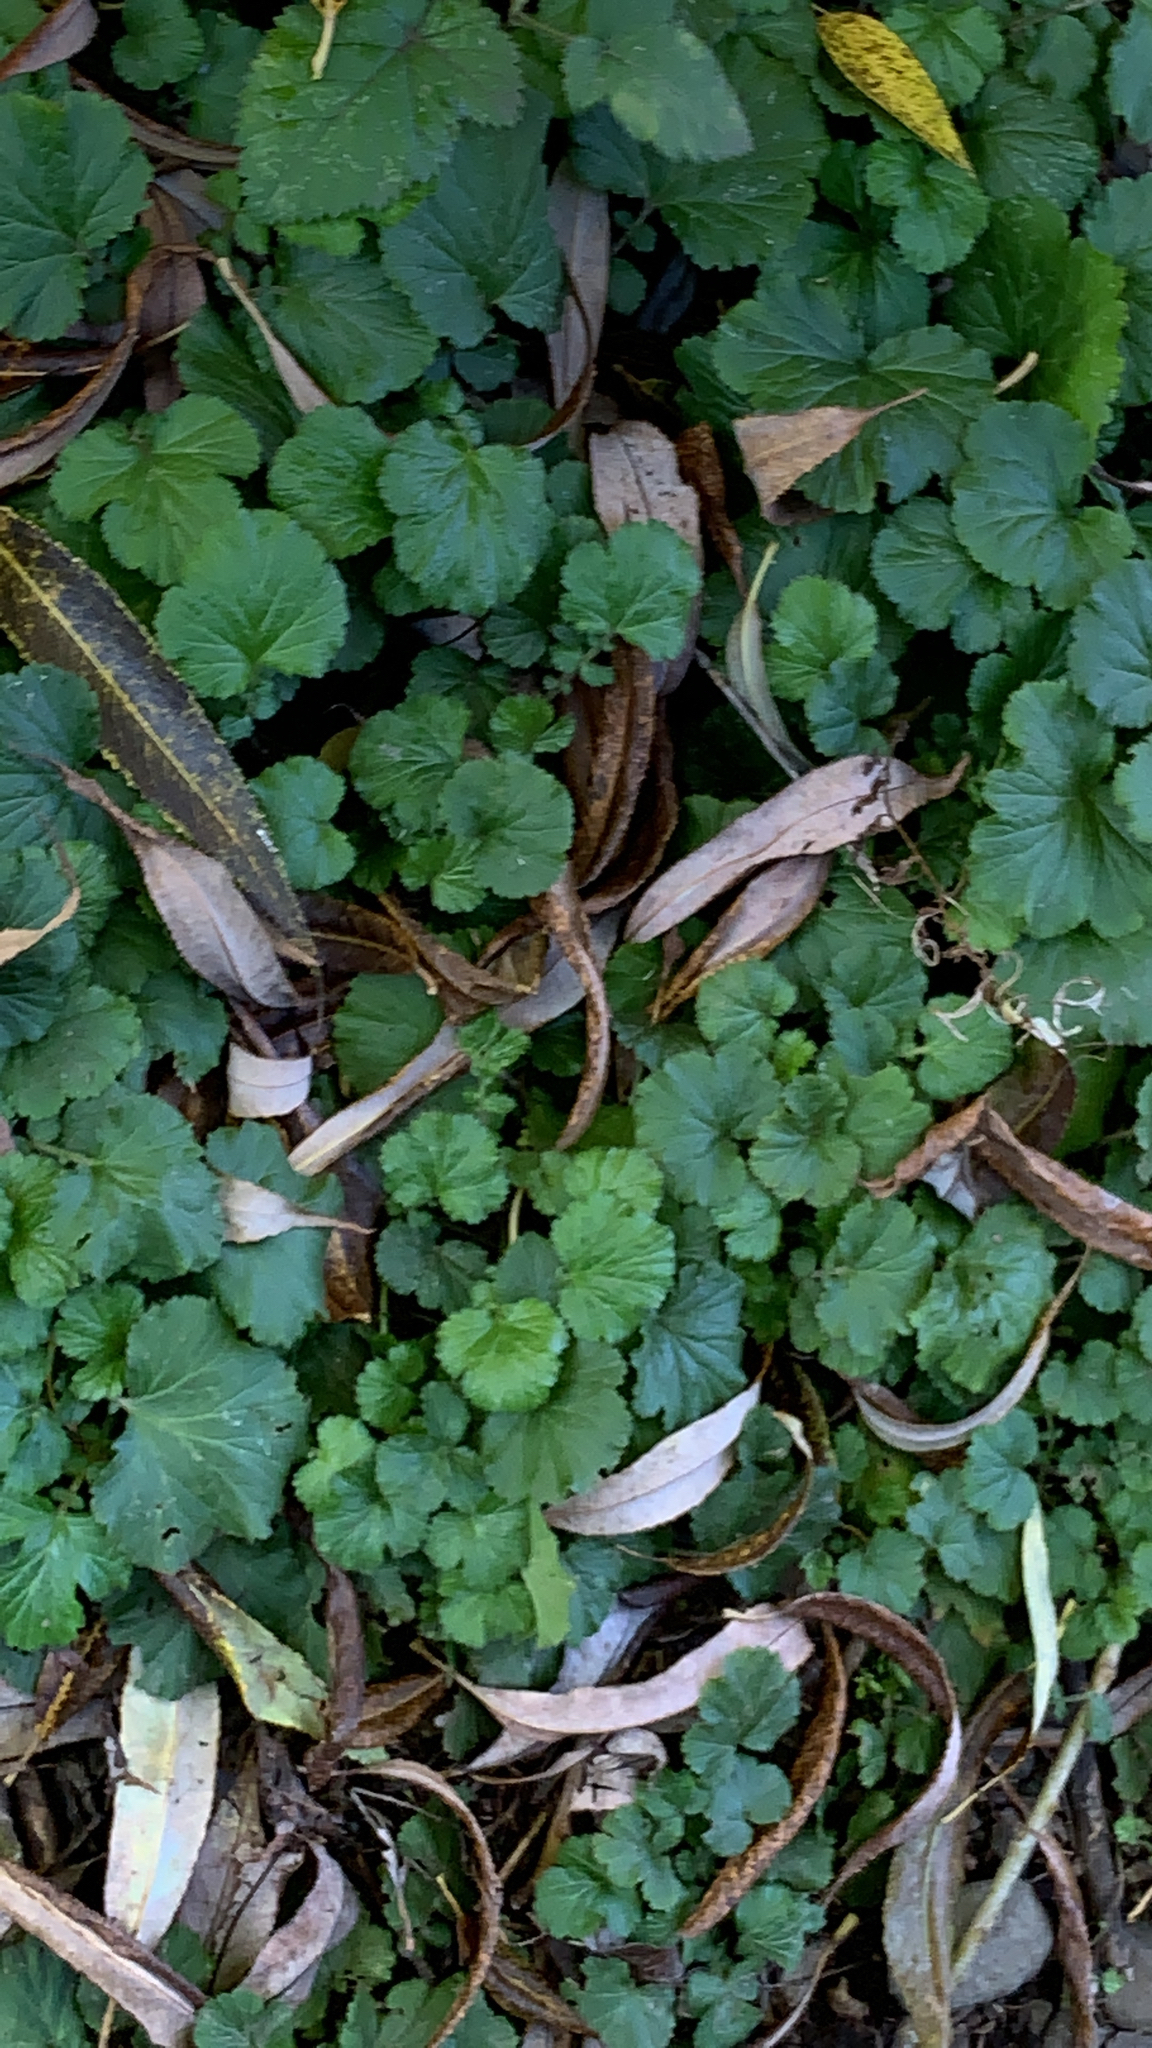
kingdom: Plantae
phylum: Tracheophyta
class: Magnoliopsida
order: Rosales
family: Rosaceae
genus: Geum
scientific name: Geum macrophyllum
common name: Large-leaved avens
